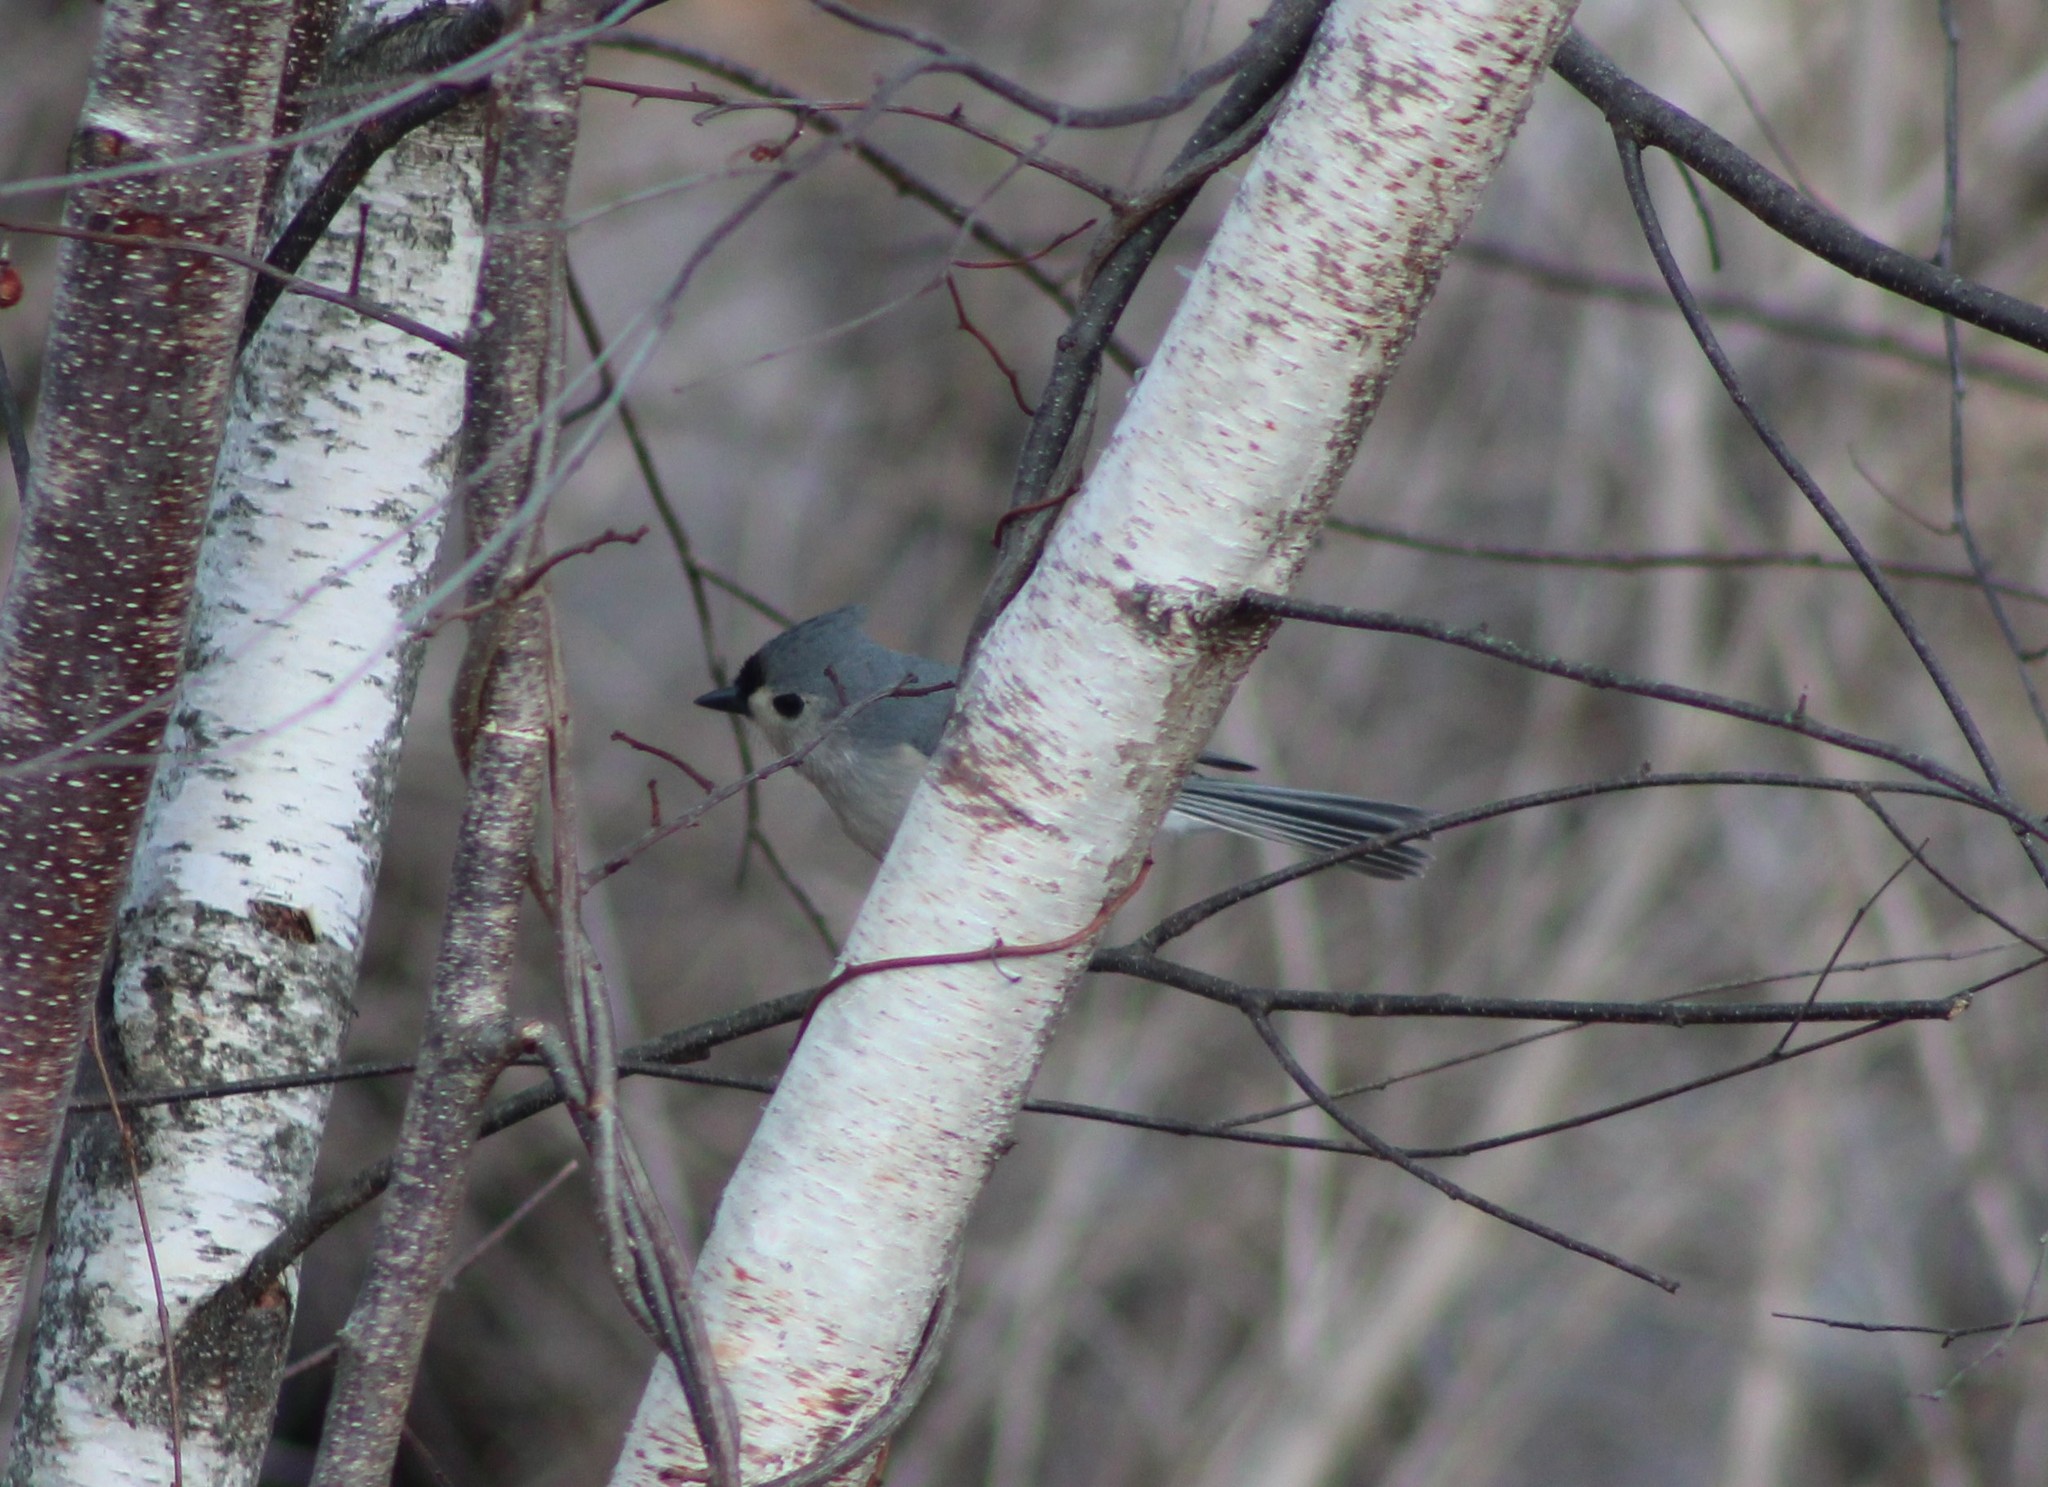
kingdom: Animalia
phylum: Chordata
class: Aves
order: Passeriformes
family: Paridae
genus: Baeolophus
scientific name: Baeolophus bicolor
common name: Tufted titmouse
